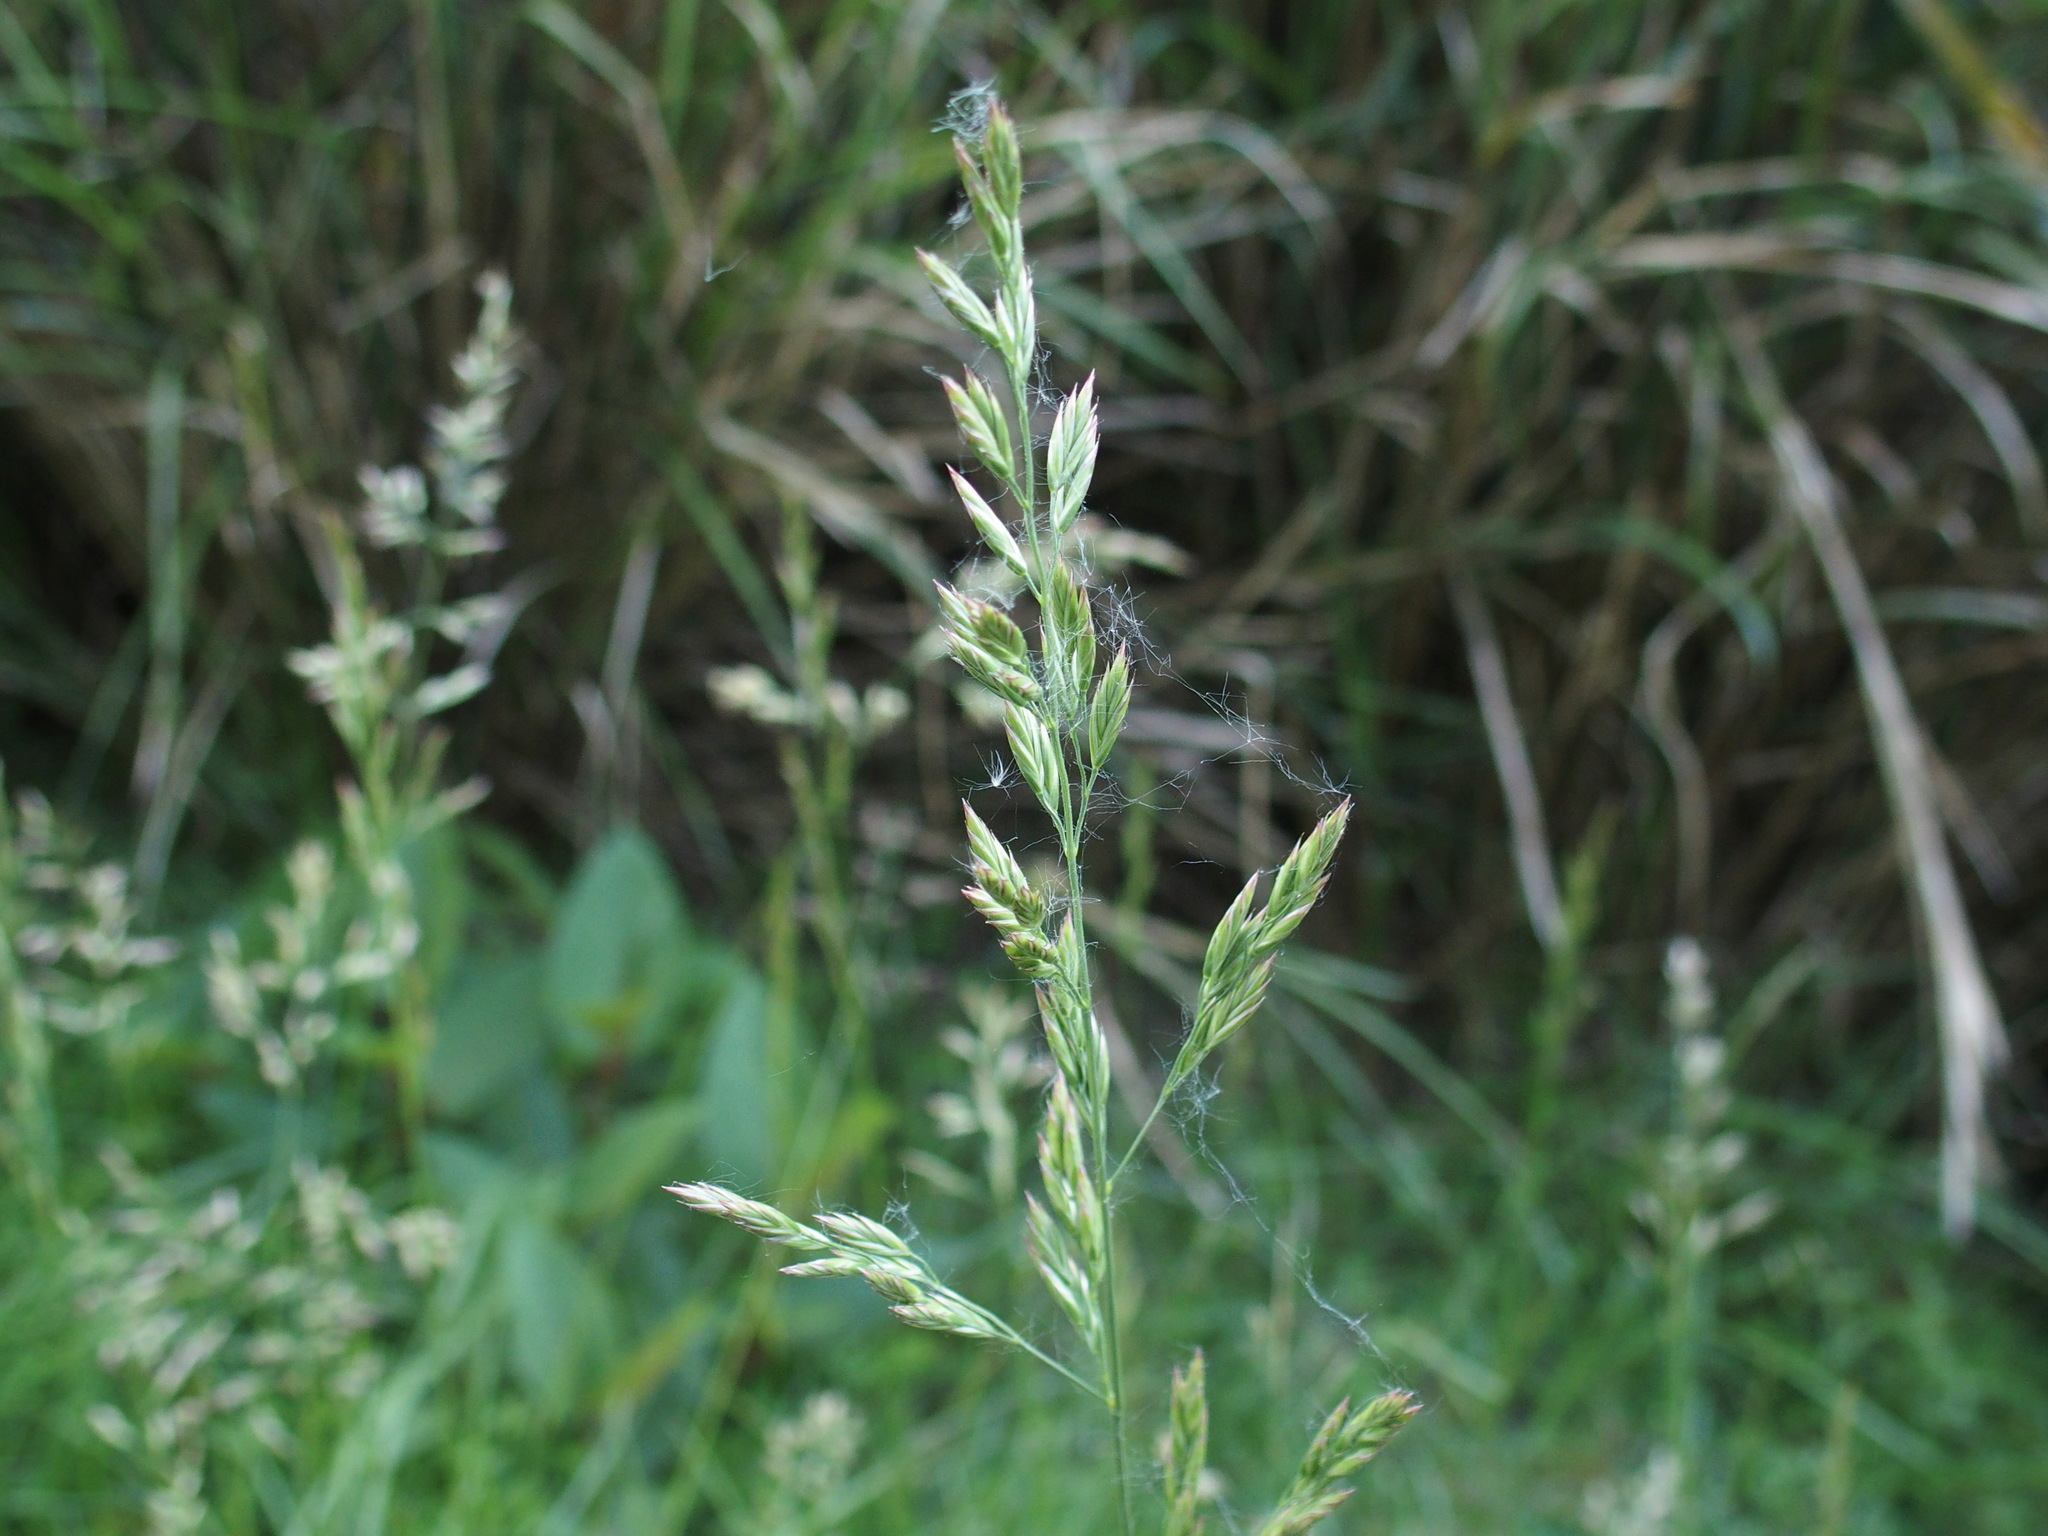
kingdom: Plantae
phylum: Tracheophyta
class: Liliopsida
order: Poales
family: Poaceae
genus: Lolium
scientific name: Lolium arundinaceum
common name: Reed fescue
